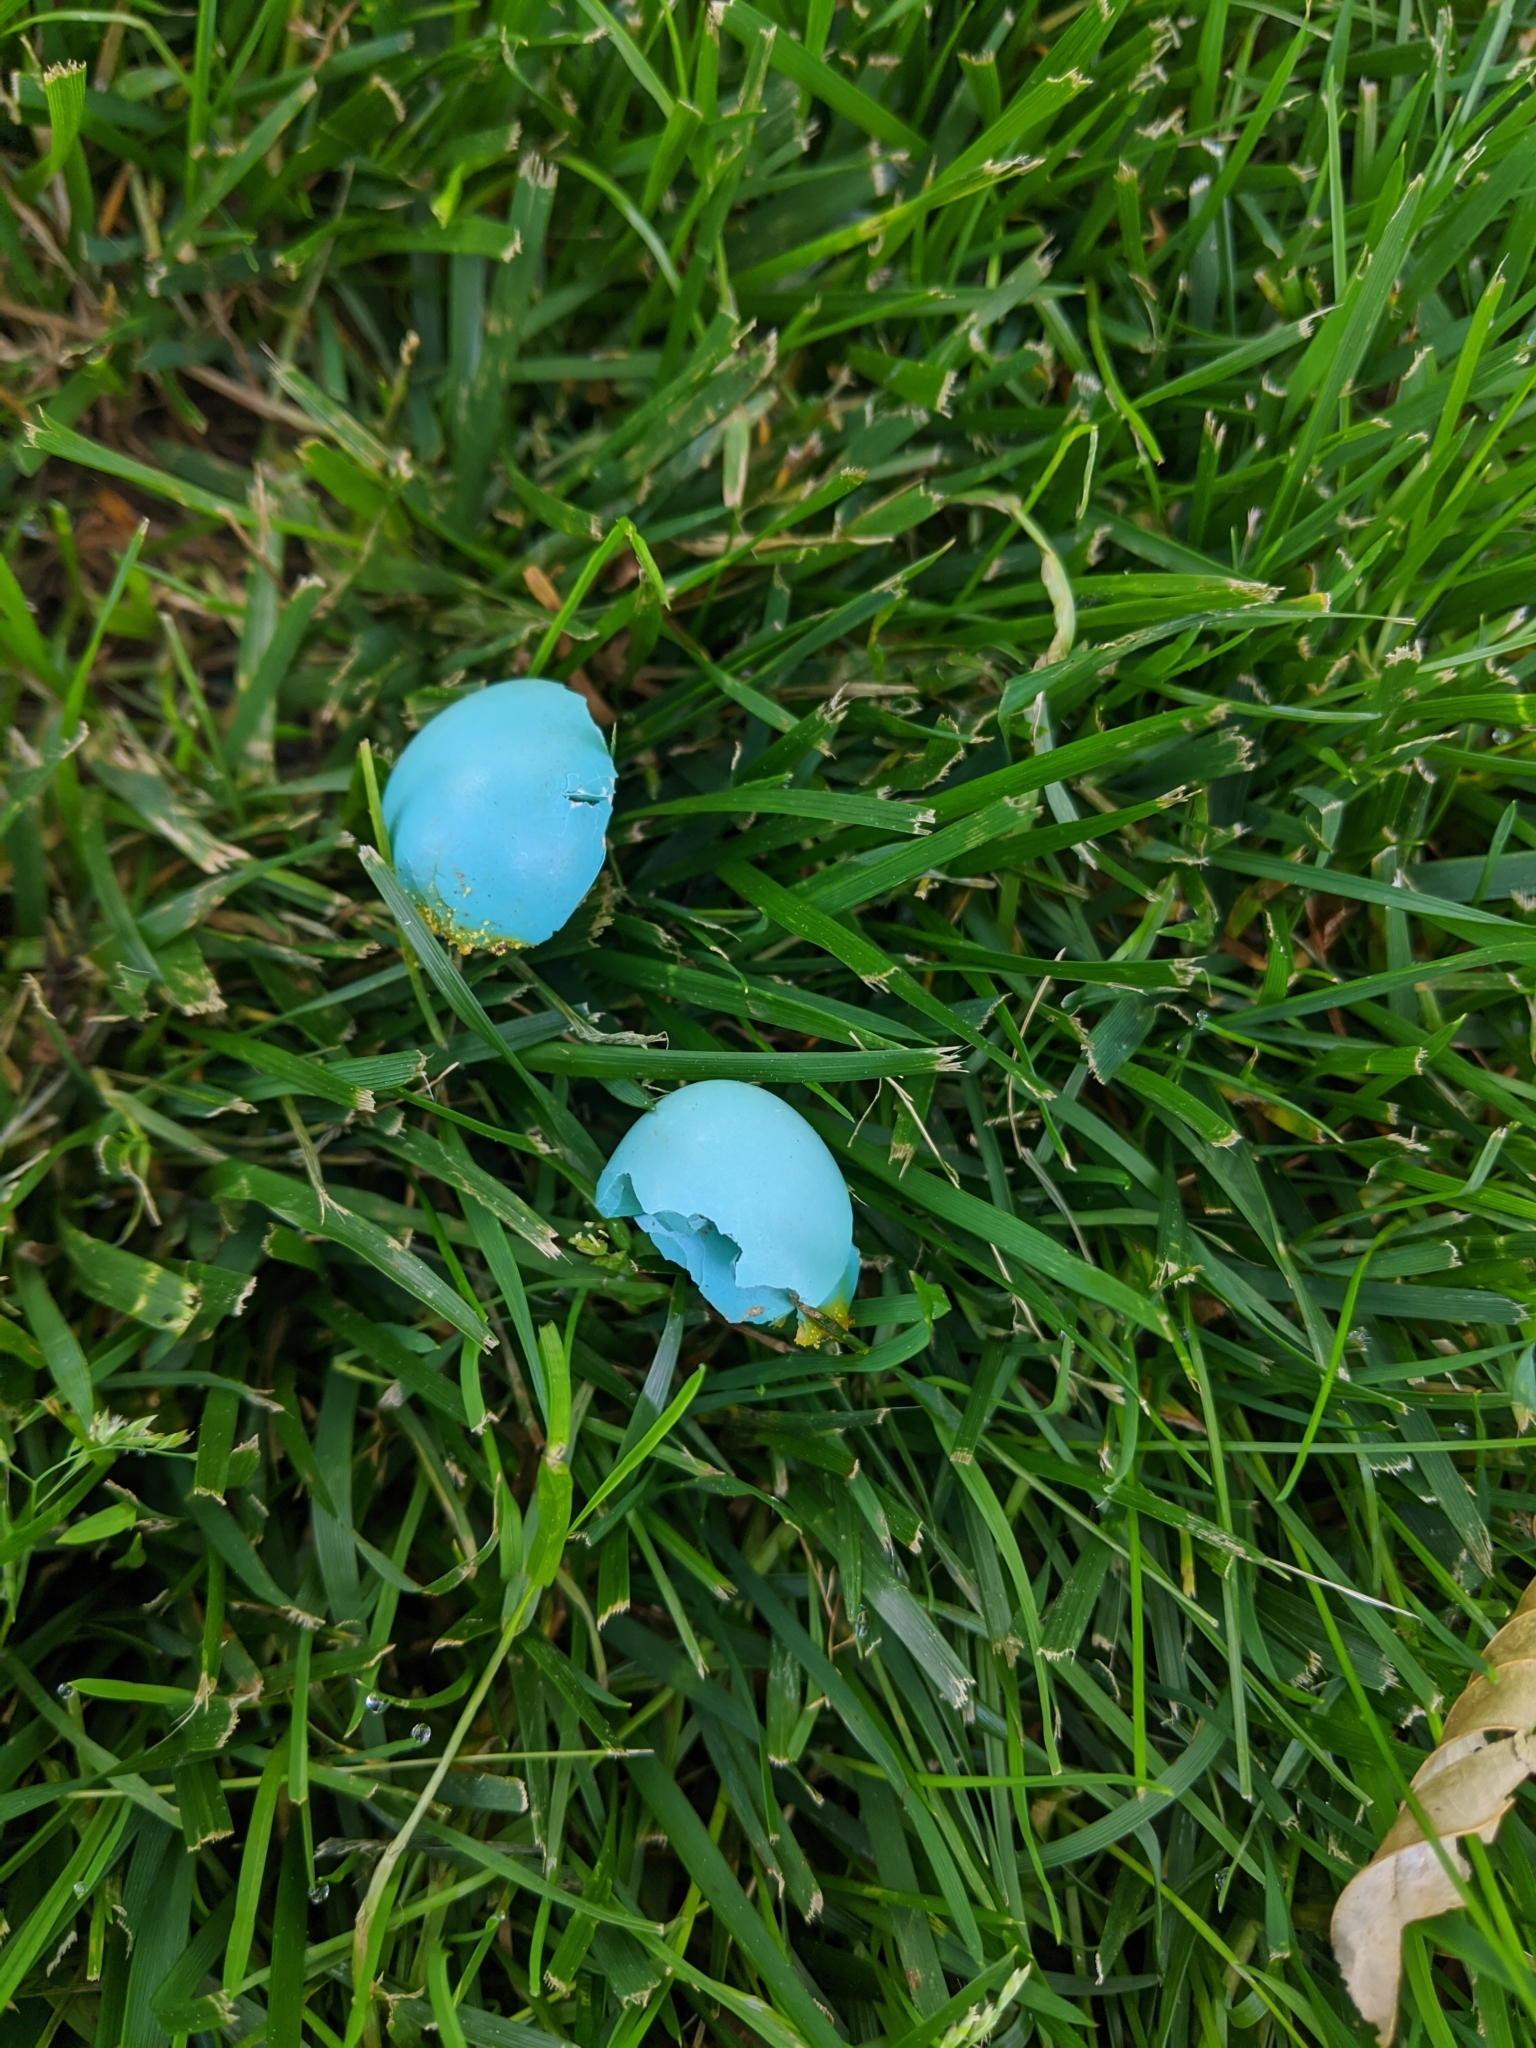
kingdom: Animalia
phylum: Chordata
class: Aves
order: Passeriformes
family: Turdidae
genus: Turdus
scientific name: Turdus migratorius
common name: American robin
